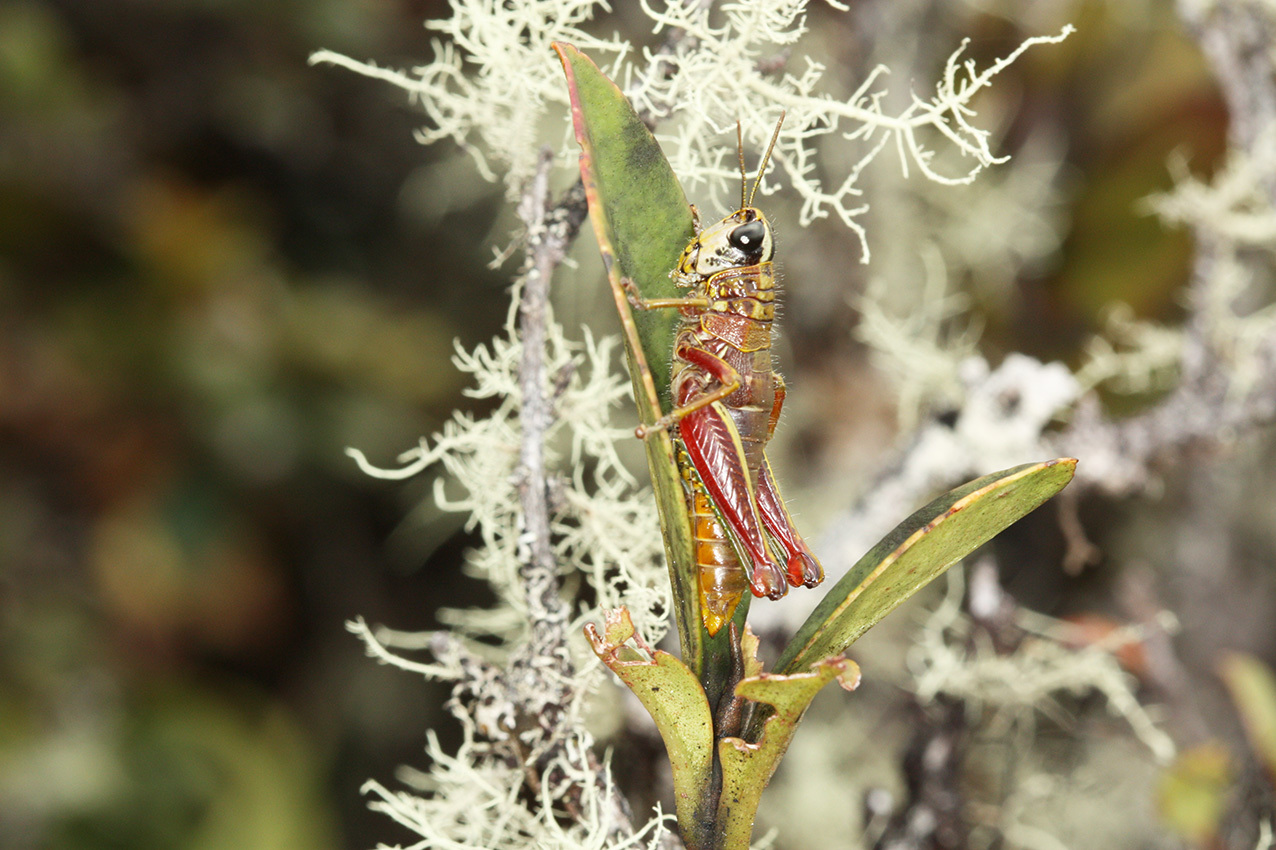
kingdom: Animalia
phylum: Arthropoda
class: Insecta
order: Orthoptera
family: Acrididae
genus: Jivarus
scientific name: Jivarus ronderosi
